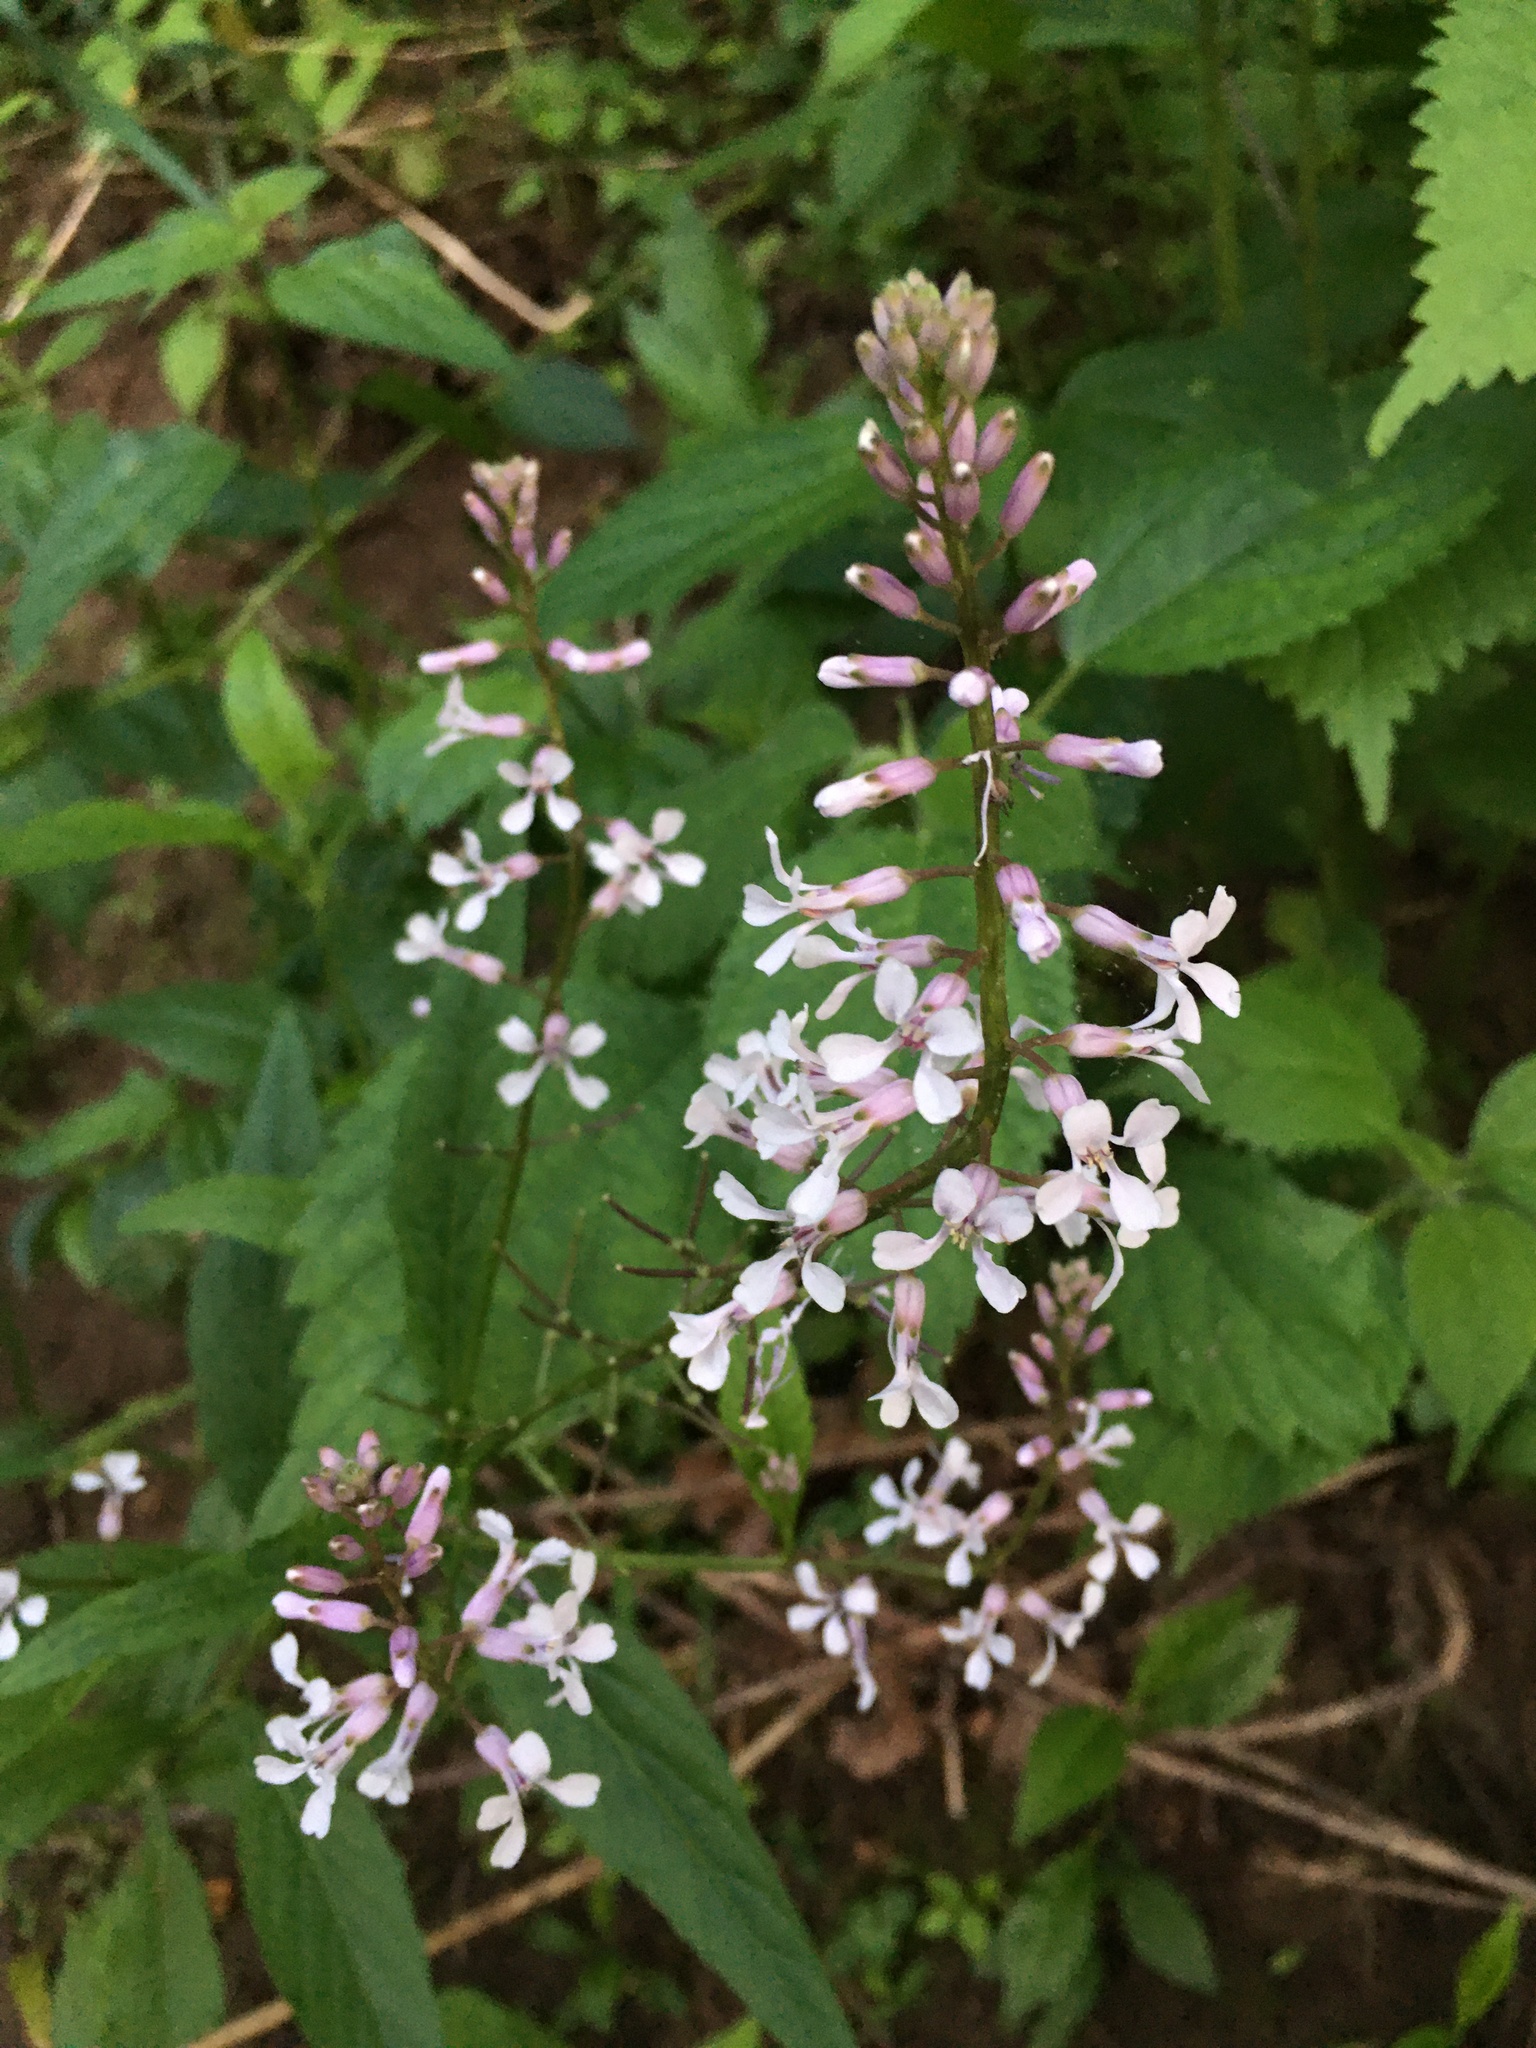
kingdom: Plantae
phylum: Tracheophyta
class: Magnoliopsida
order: Brassicales
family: Brassicaceae
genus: Iodanthus
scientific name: Iodanthus pinnatifidus
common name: Violet rocket
